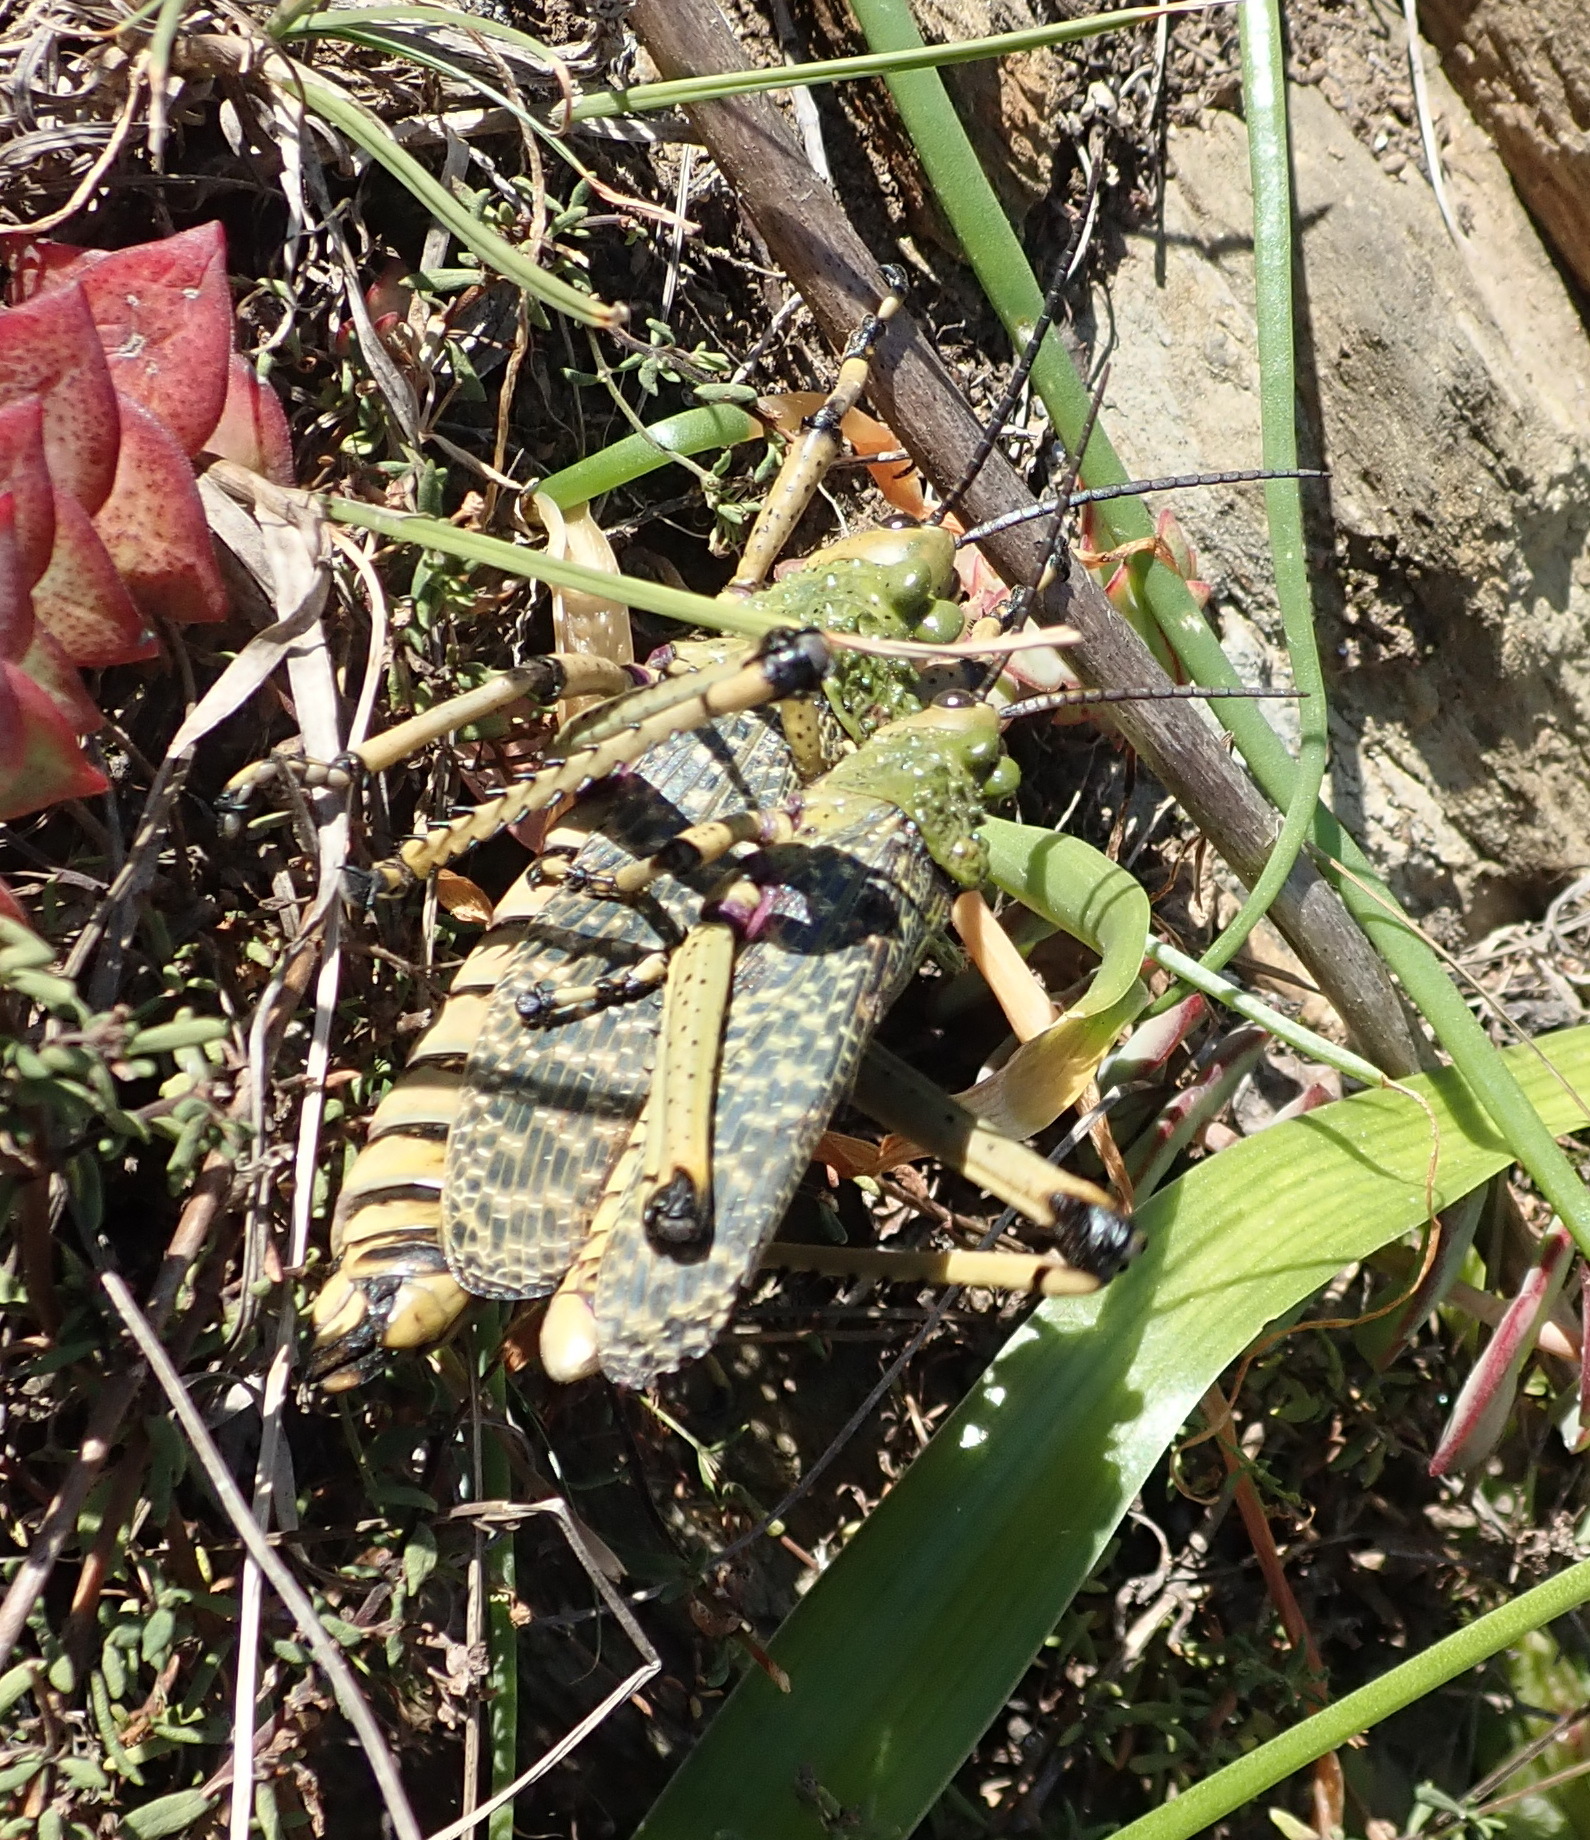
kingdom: Animalia
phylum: Arthropoda
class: Insecta
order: Orthoptera
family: Pyrgomorphidae
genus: Phymateus
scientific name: Phymateus leprosus
